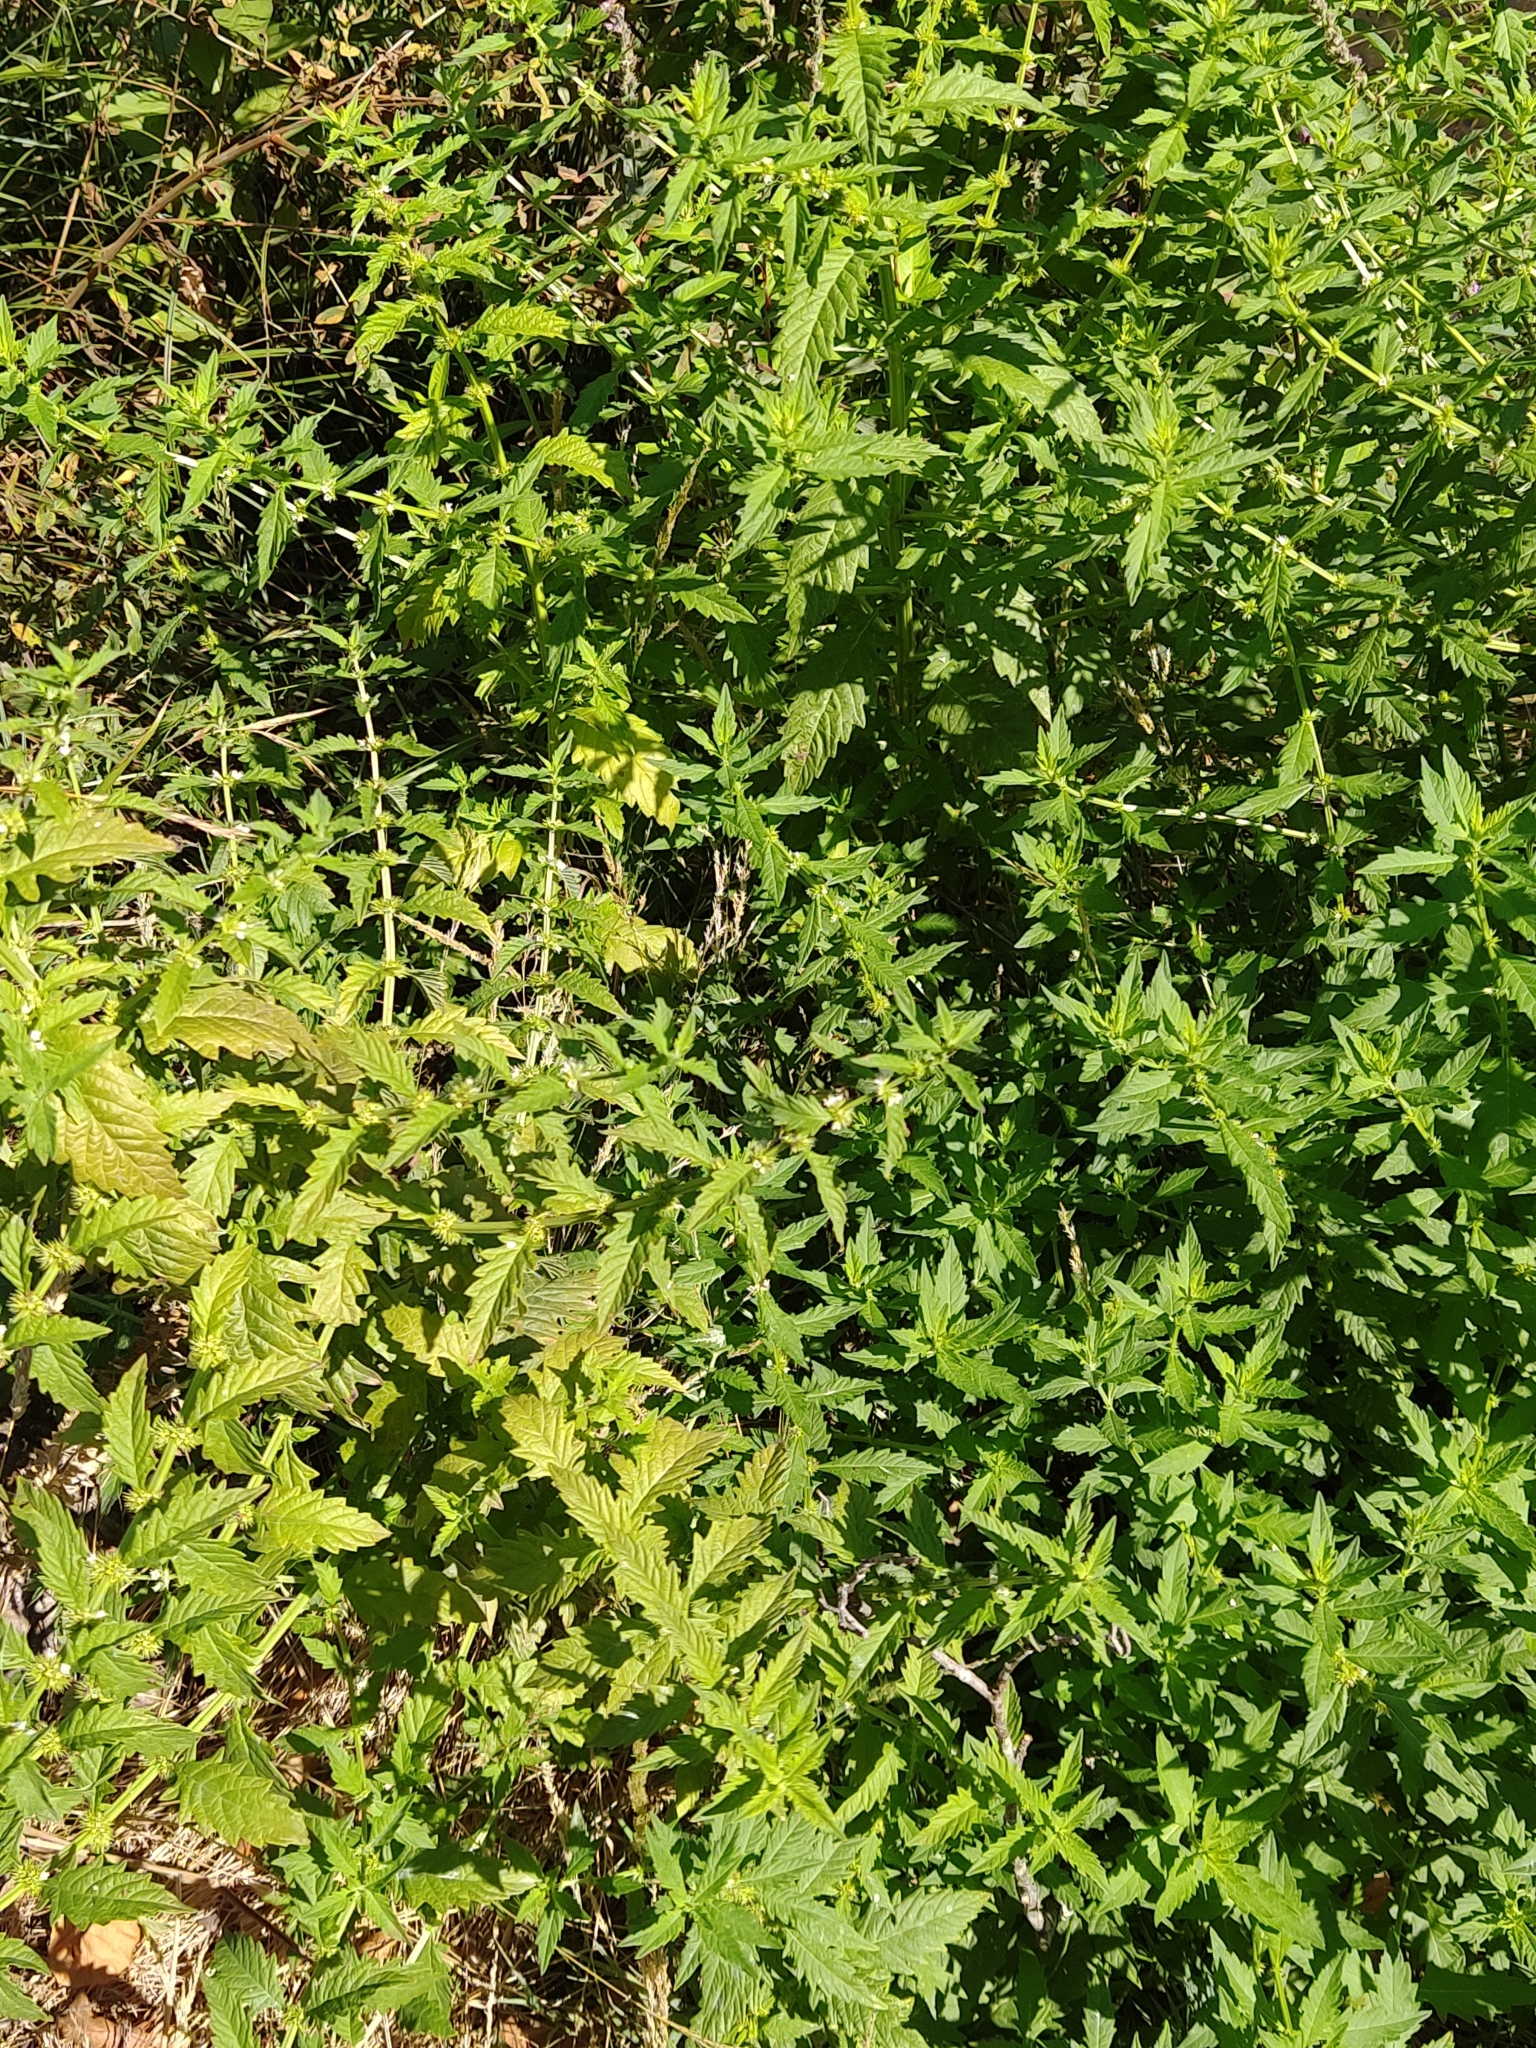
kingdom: Plantae
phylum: Tracheophyta
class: Magnoliopsida
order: Lamiales
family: Lamiaceae
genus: Lycopus
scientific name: Lycopus europaeus
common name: European bugleweed
